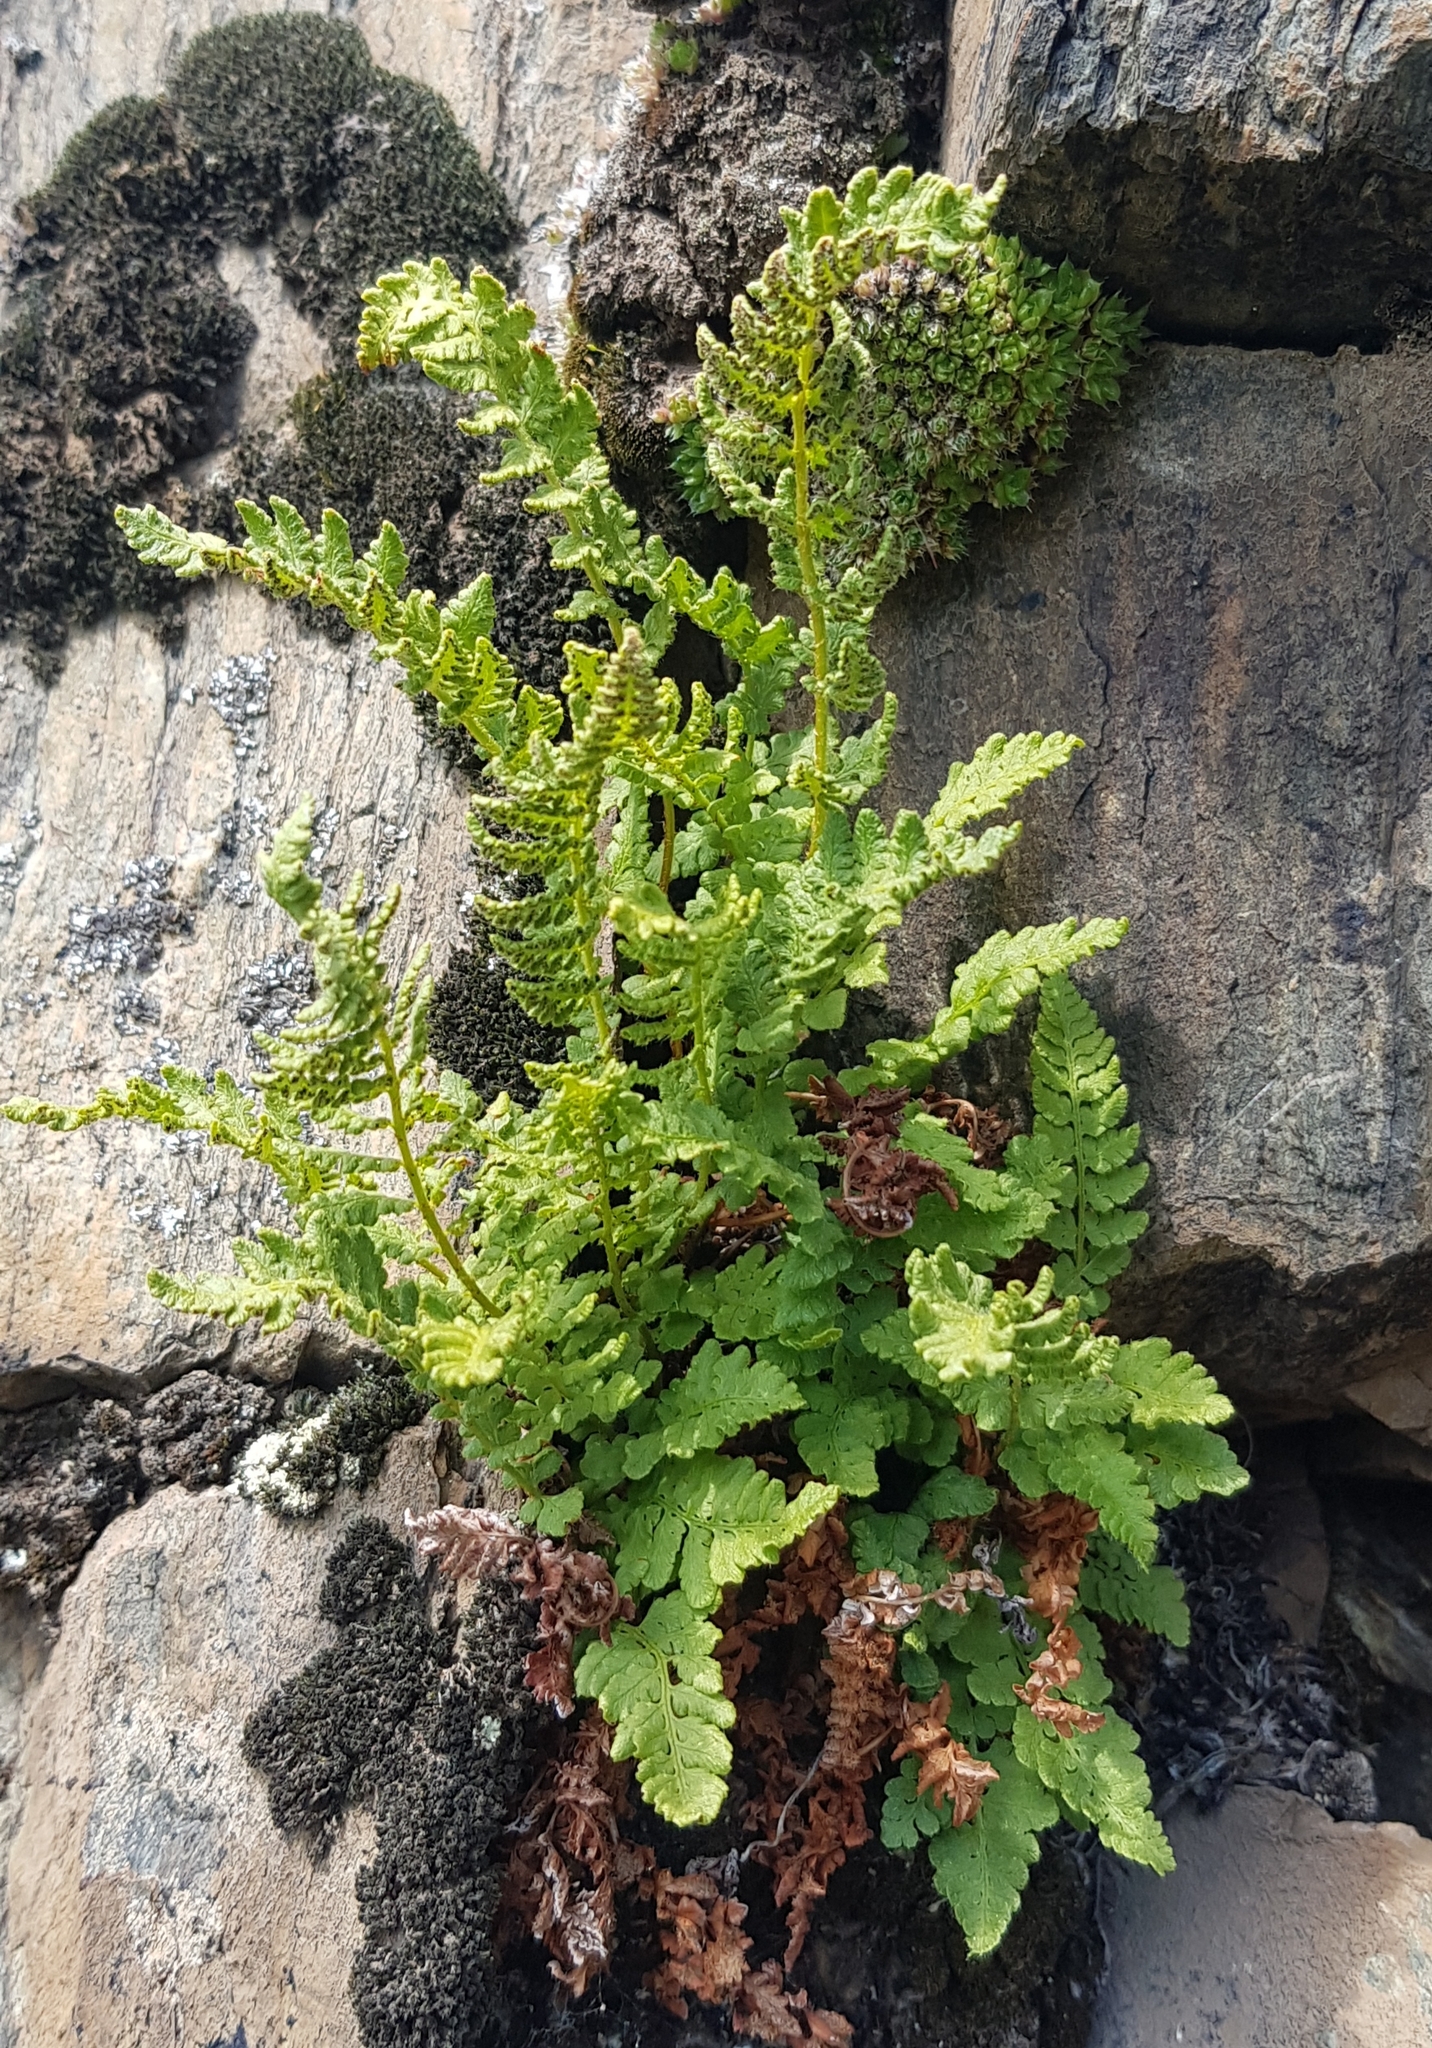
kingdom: Plantae
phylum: Tracheophyta
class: Polypodiopsida
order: Polypodiales
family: Woodsiaceae
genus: Woodsia
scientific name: Woodsia ilvensis
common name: Fragrant woodsia
